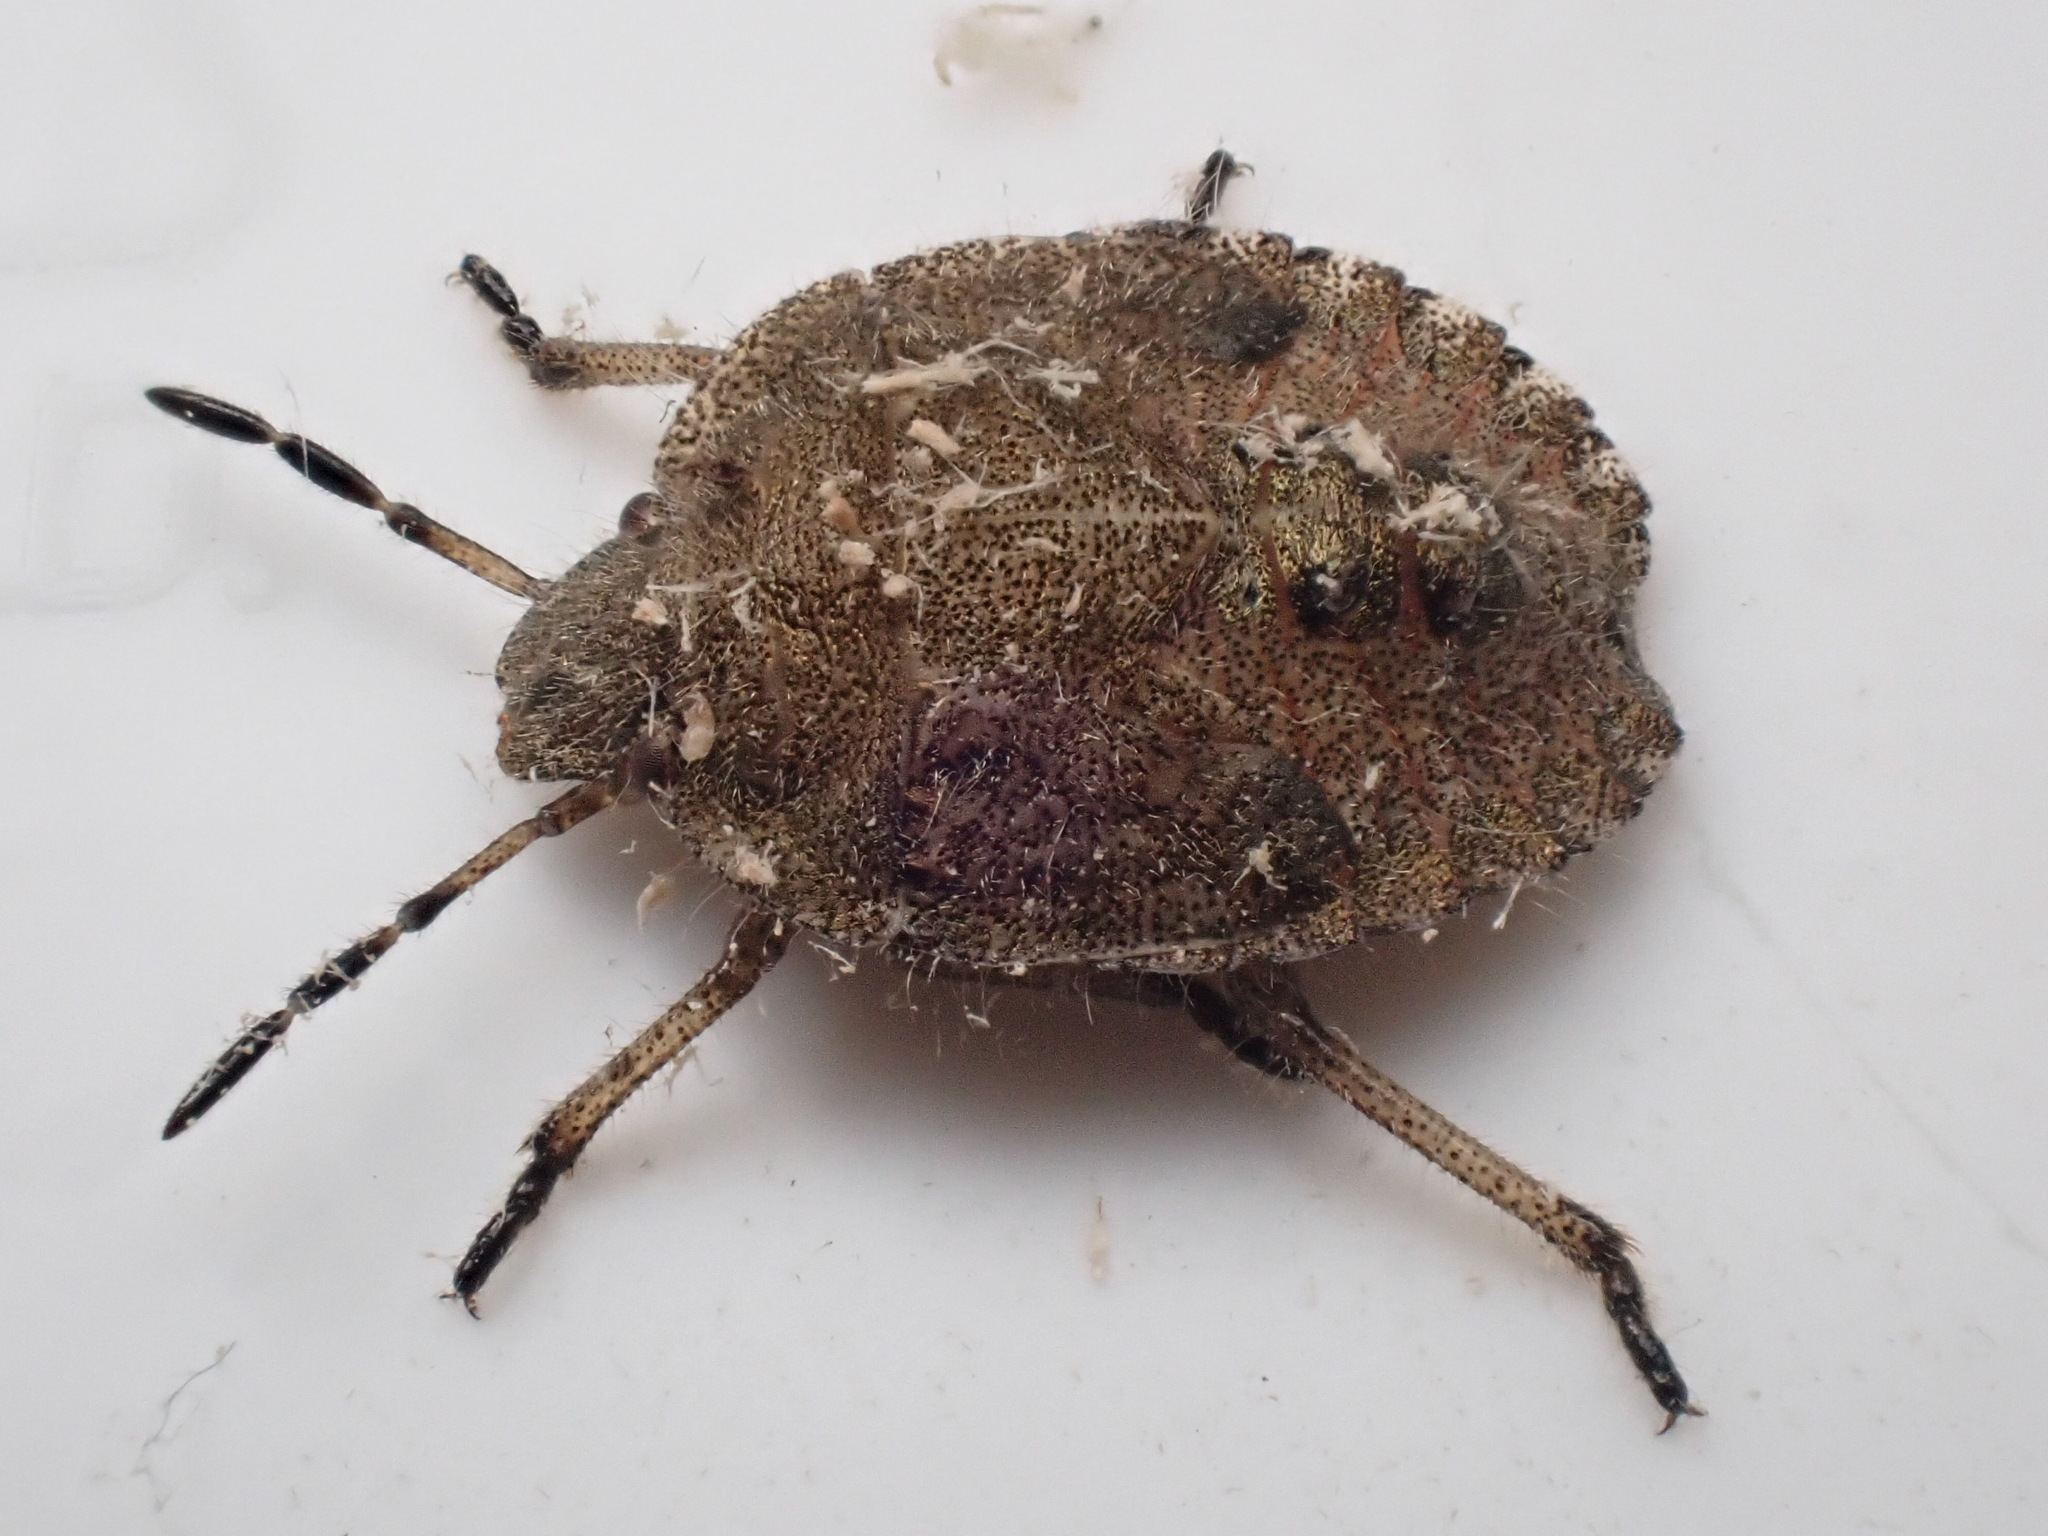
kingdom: Animalia
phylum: Arthropoda
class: Insecta
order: Hemiptera
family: Pentatomidae
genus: Dolycoris
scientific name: Dolycoris baccarum
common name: Sloe bug
